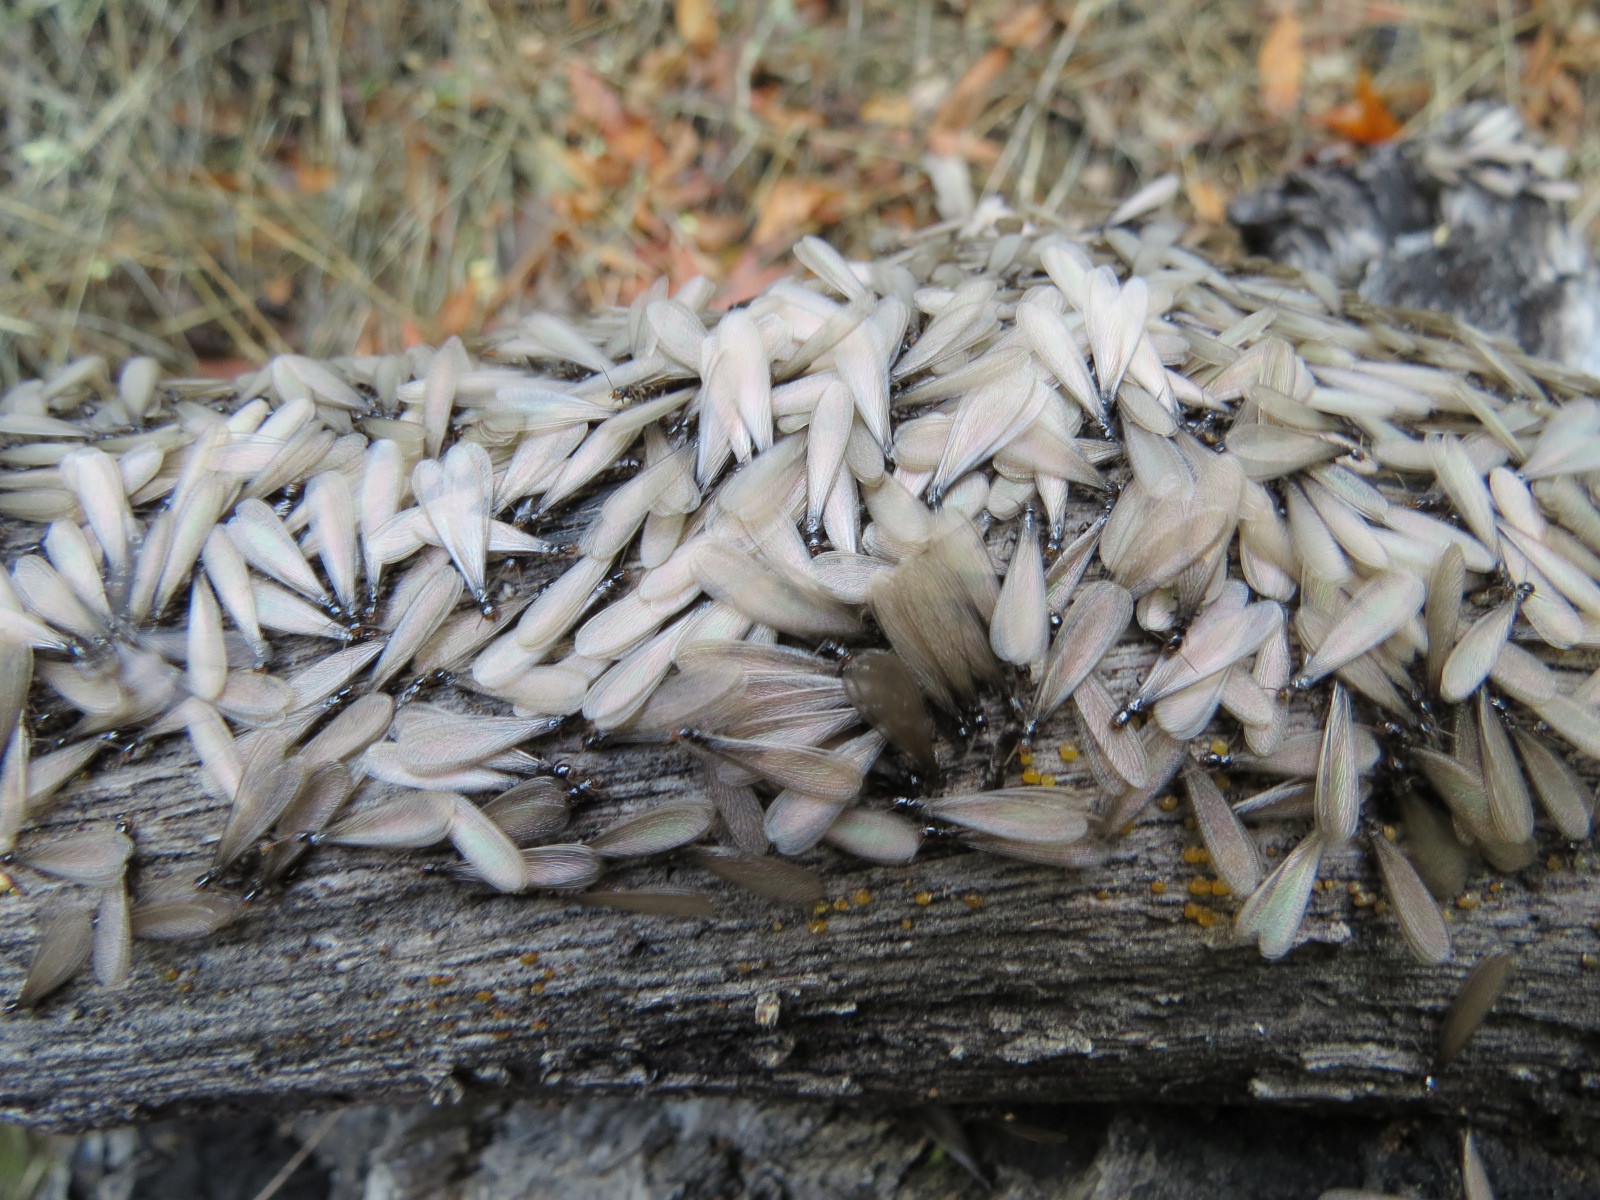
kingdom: Animalia
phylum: Arthropoda
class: Insecta
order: Blattodea
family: Rhinotermitidae
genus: Reticulitermes
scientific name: Reticulitermes hesperus
